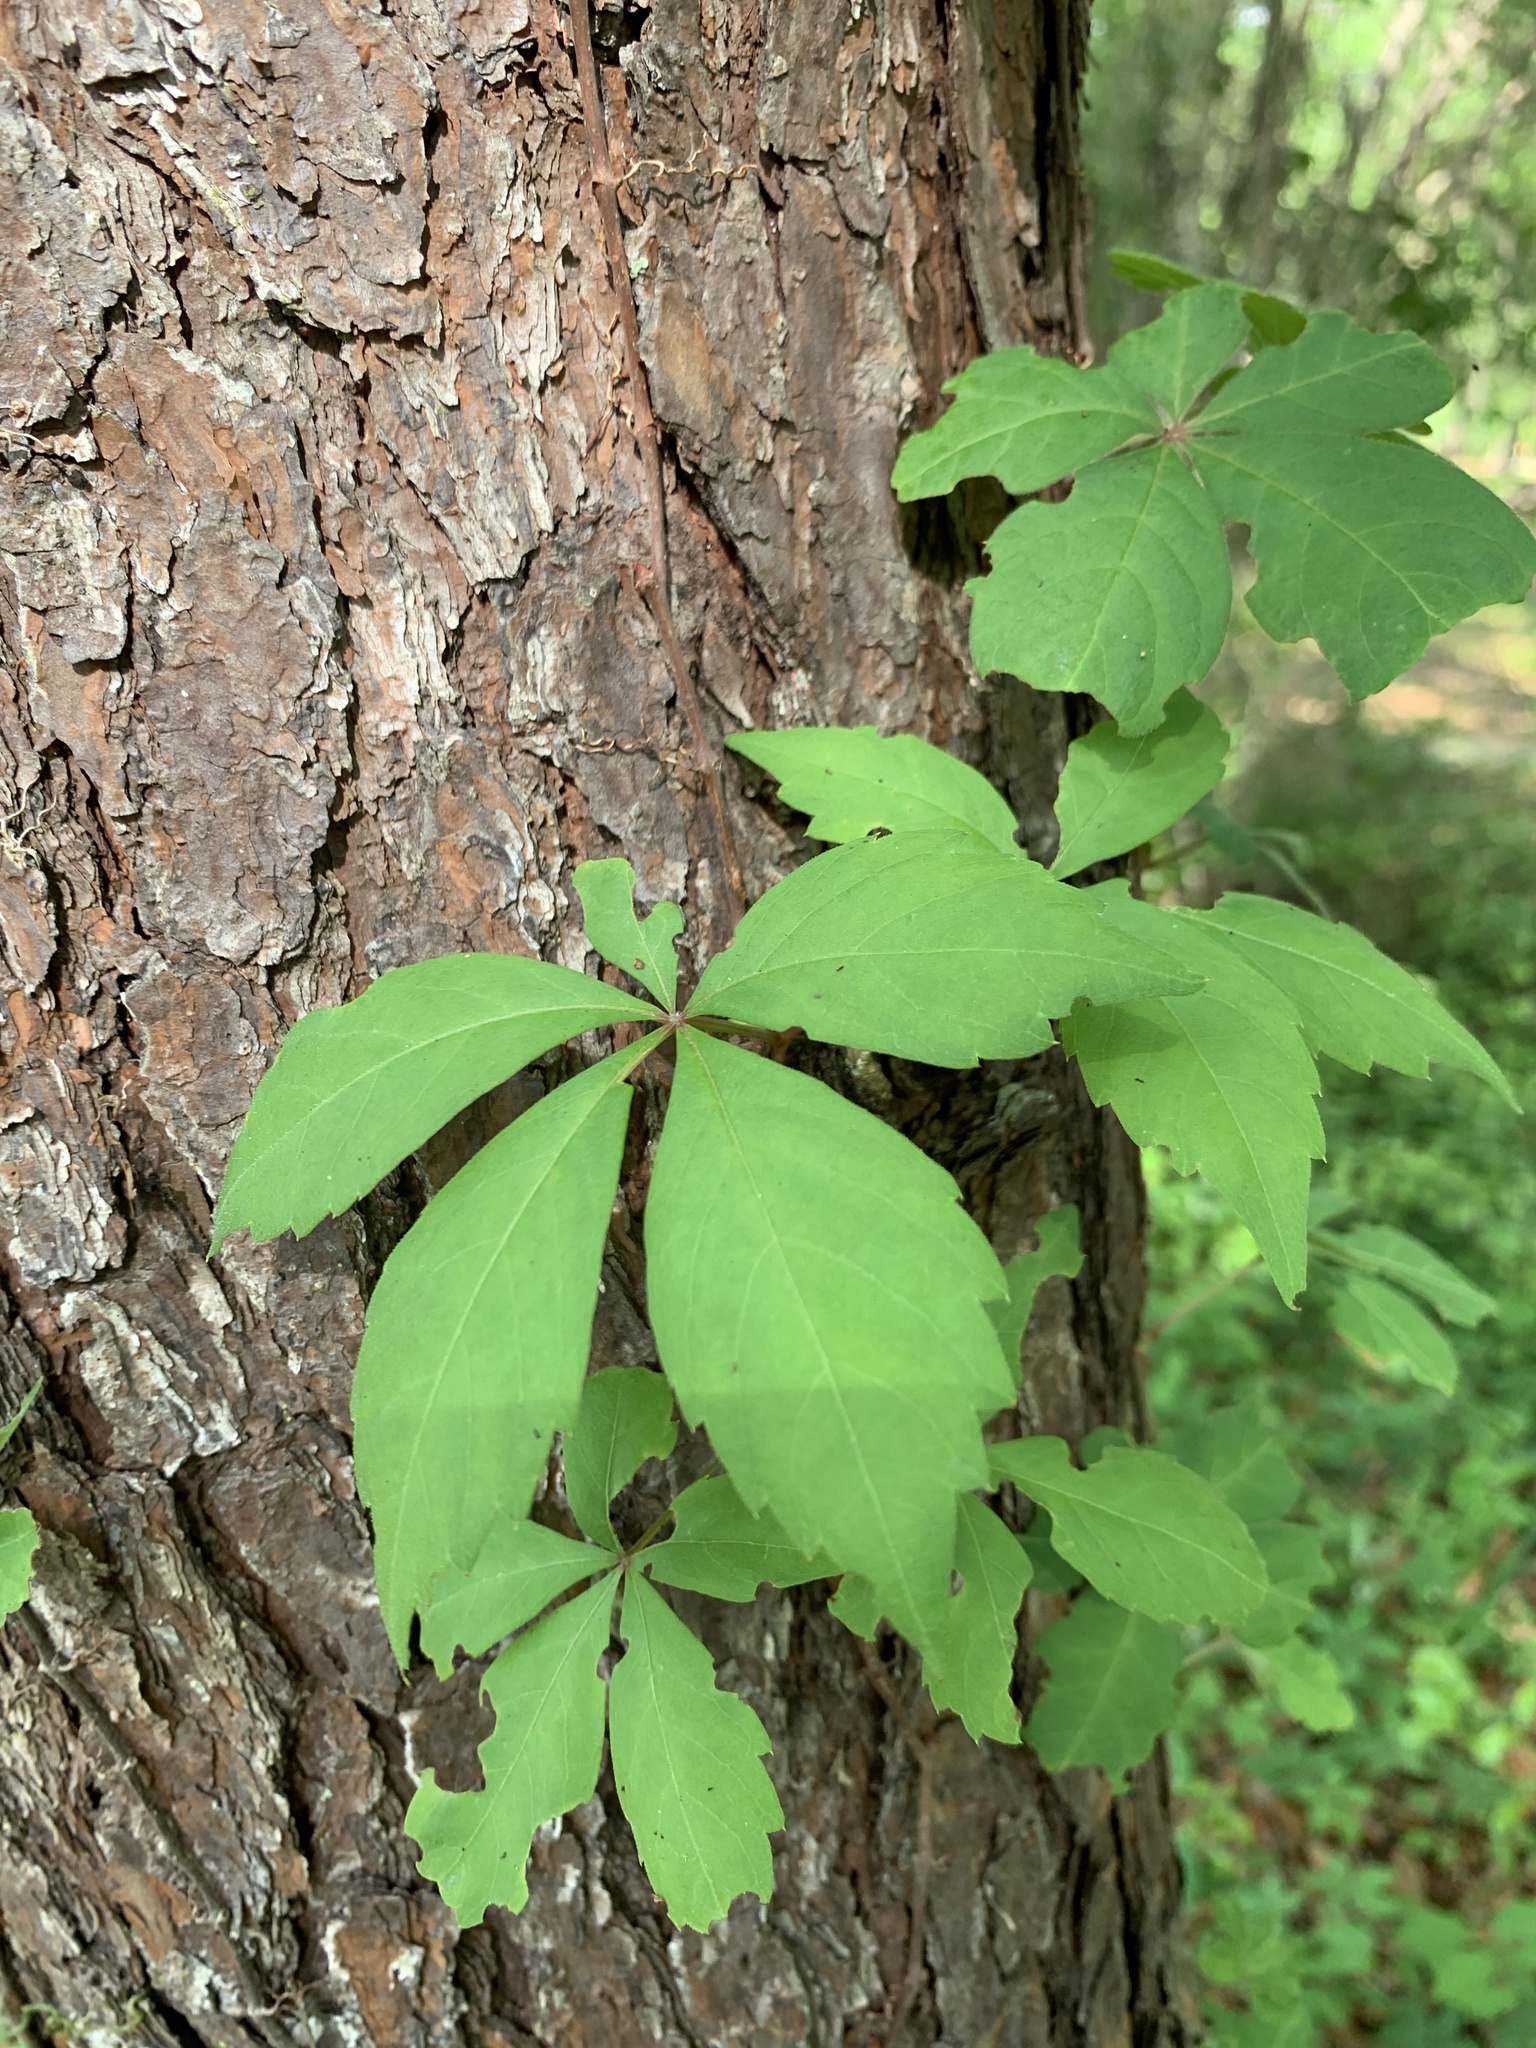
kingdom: Plantae
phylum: Tracheophyta
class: Magnoliopsida
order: Vitales
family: Vitaceae
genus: Parthenocissus
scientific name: Parthenocissus quinquefolia
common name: Virginia-creeper
